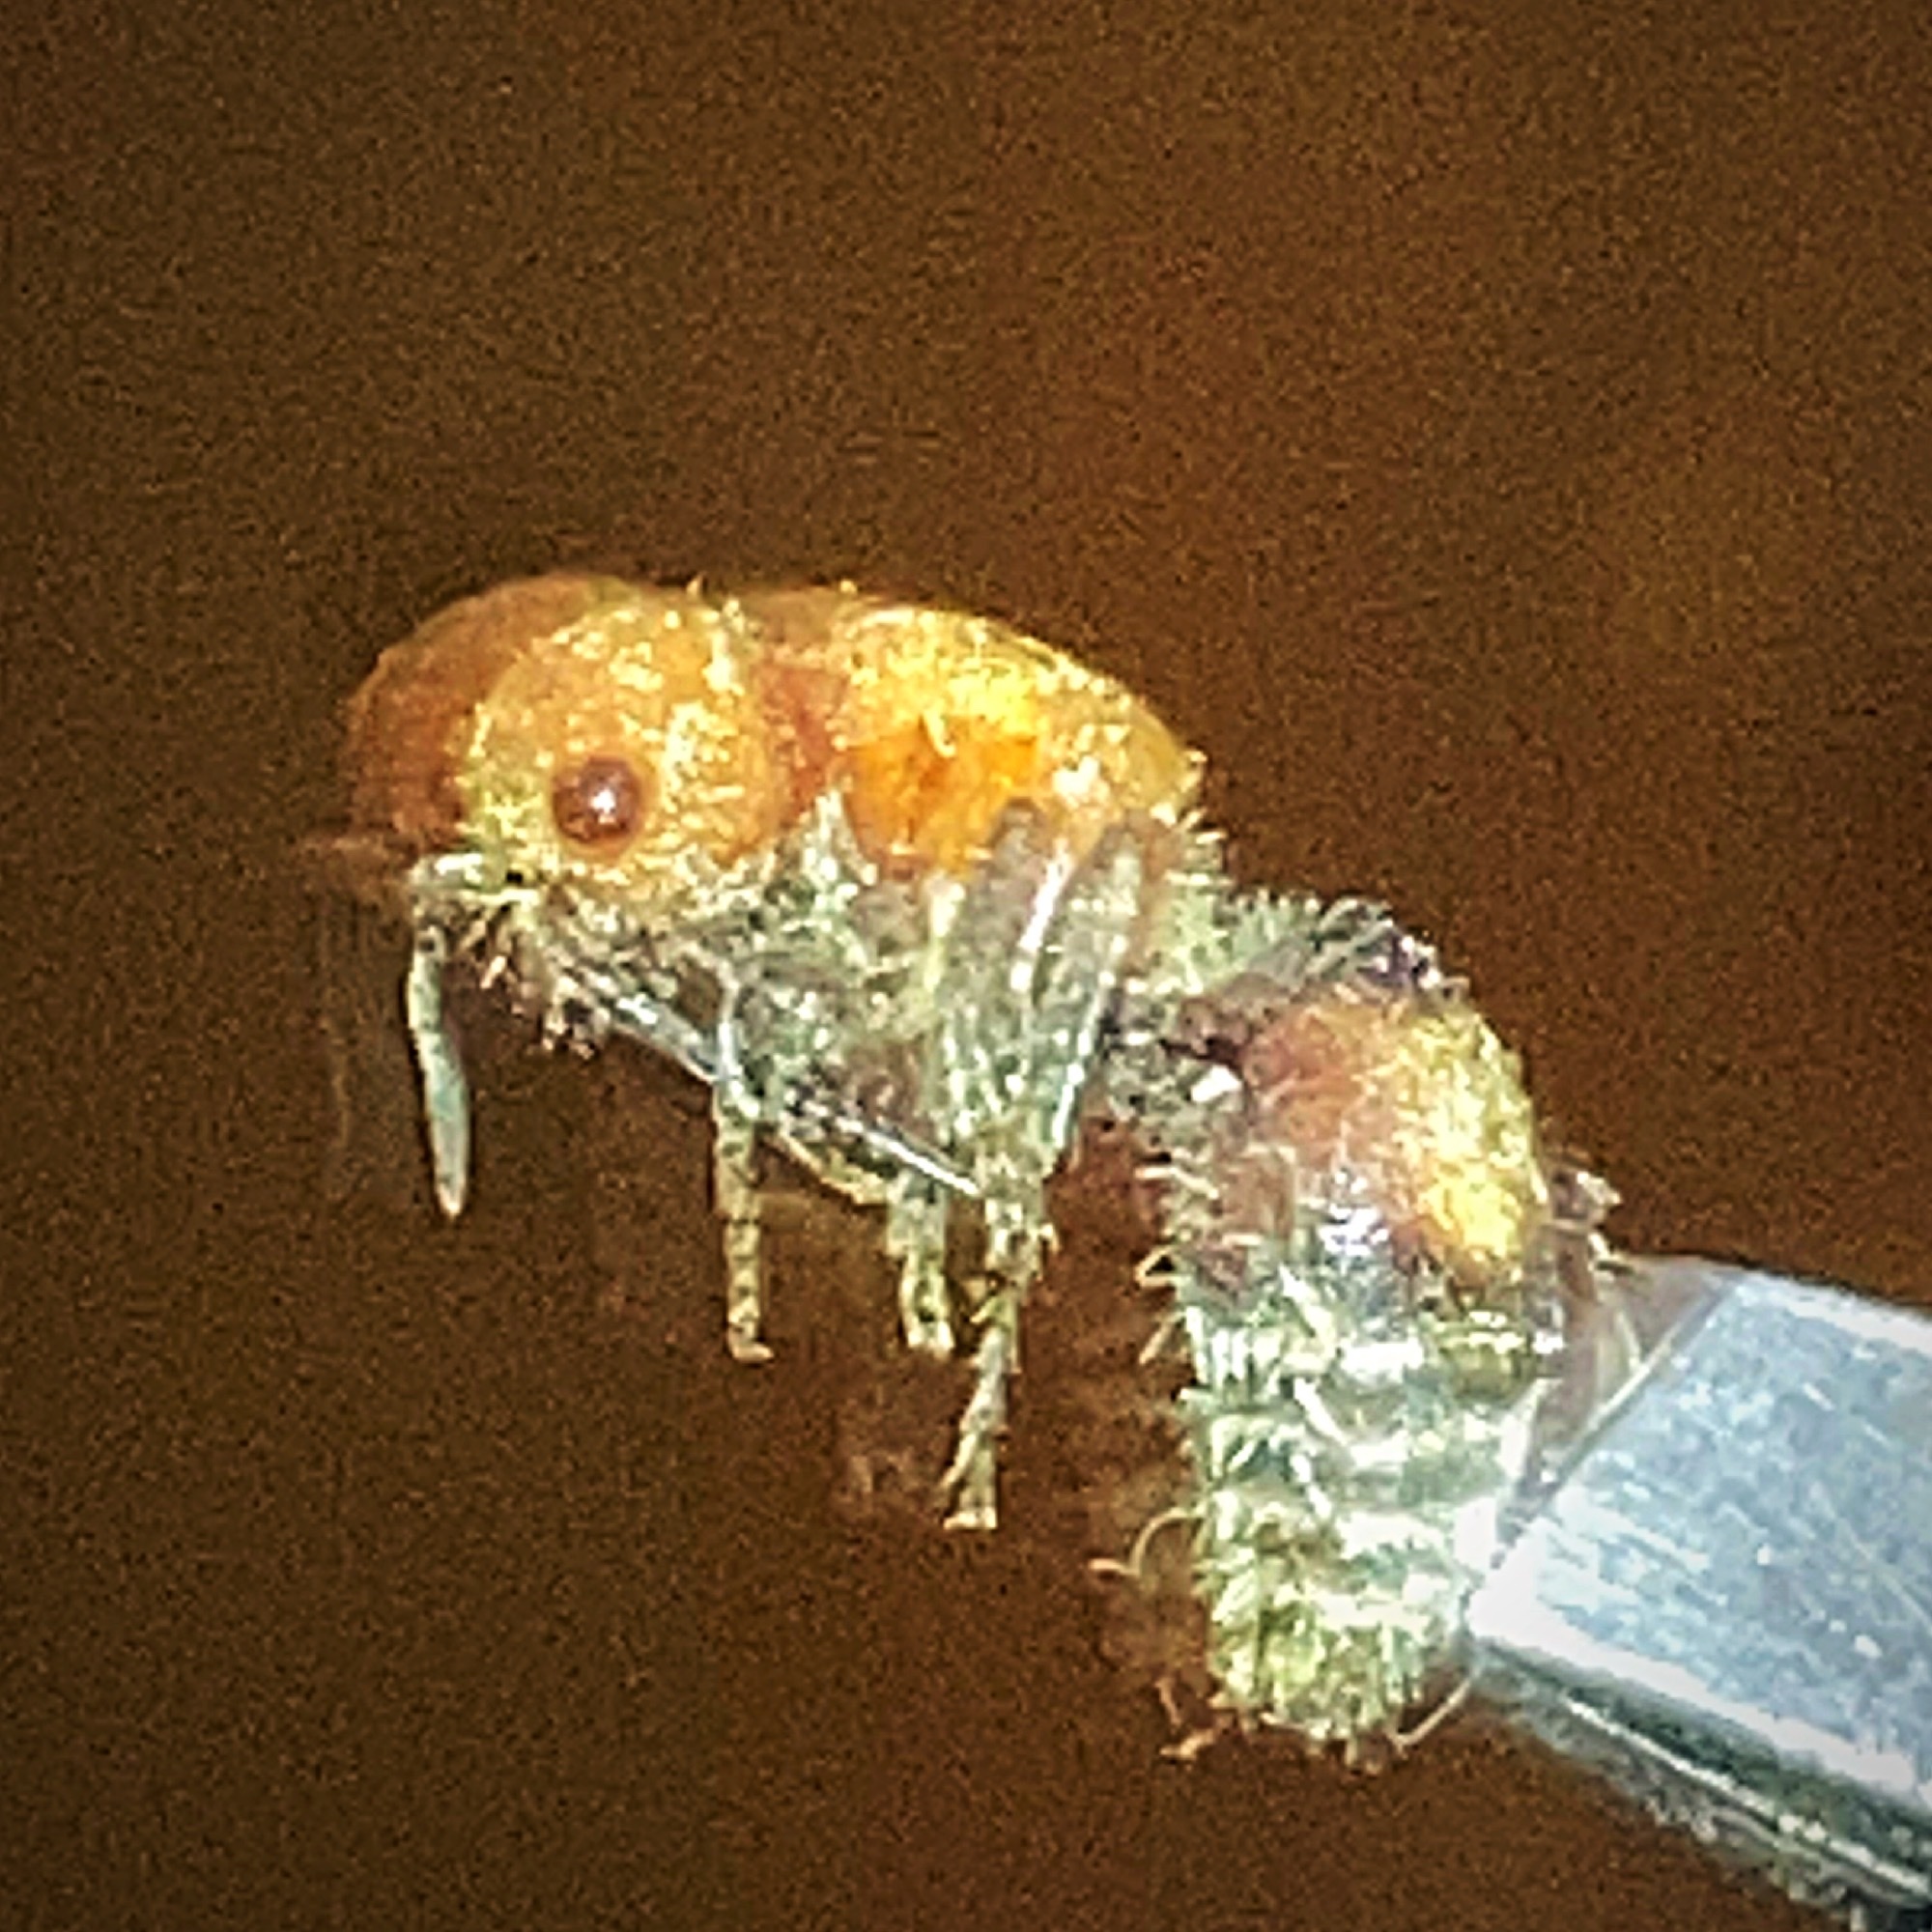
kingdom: Animalia
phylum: Arthropoda
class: Insecta
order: Hymenoptera
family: Mutillidae
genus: Pseudomethoca
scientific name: Pseudomethoca
